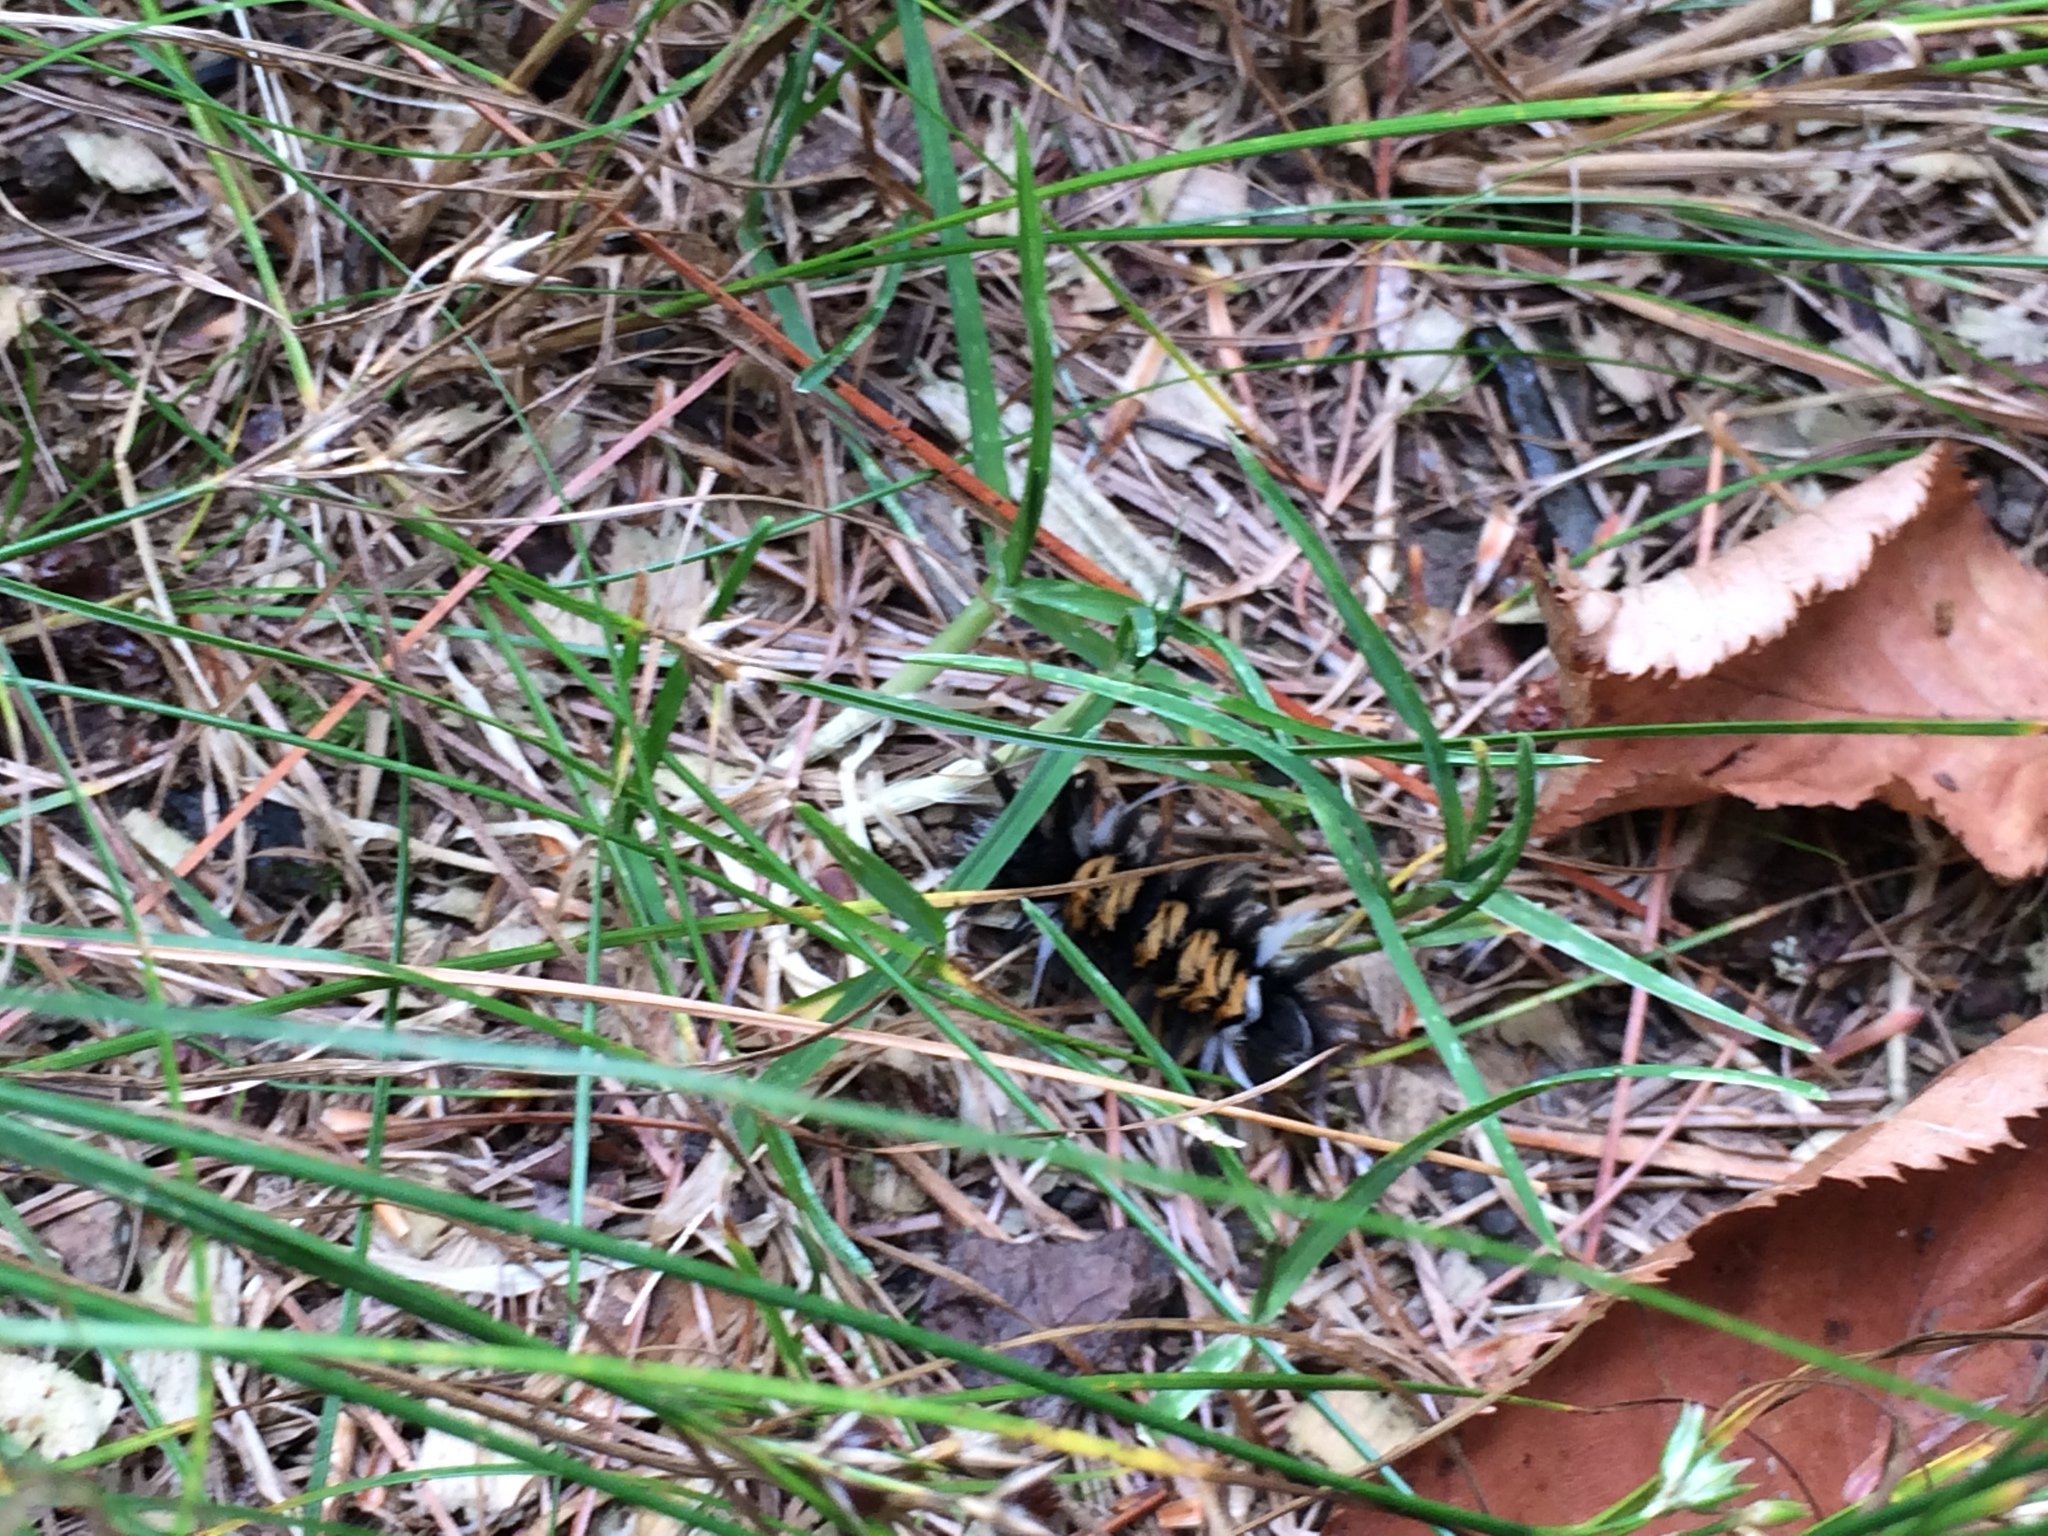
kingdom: Animalia
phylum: Arthropoda
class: Insecta
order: Lepidoptera
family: Erebidae
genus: Euchaetes
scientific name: Euchaetes egle
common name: Milkweed tussock moth
